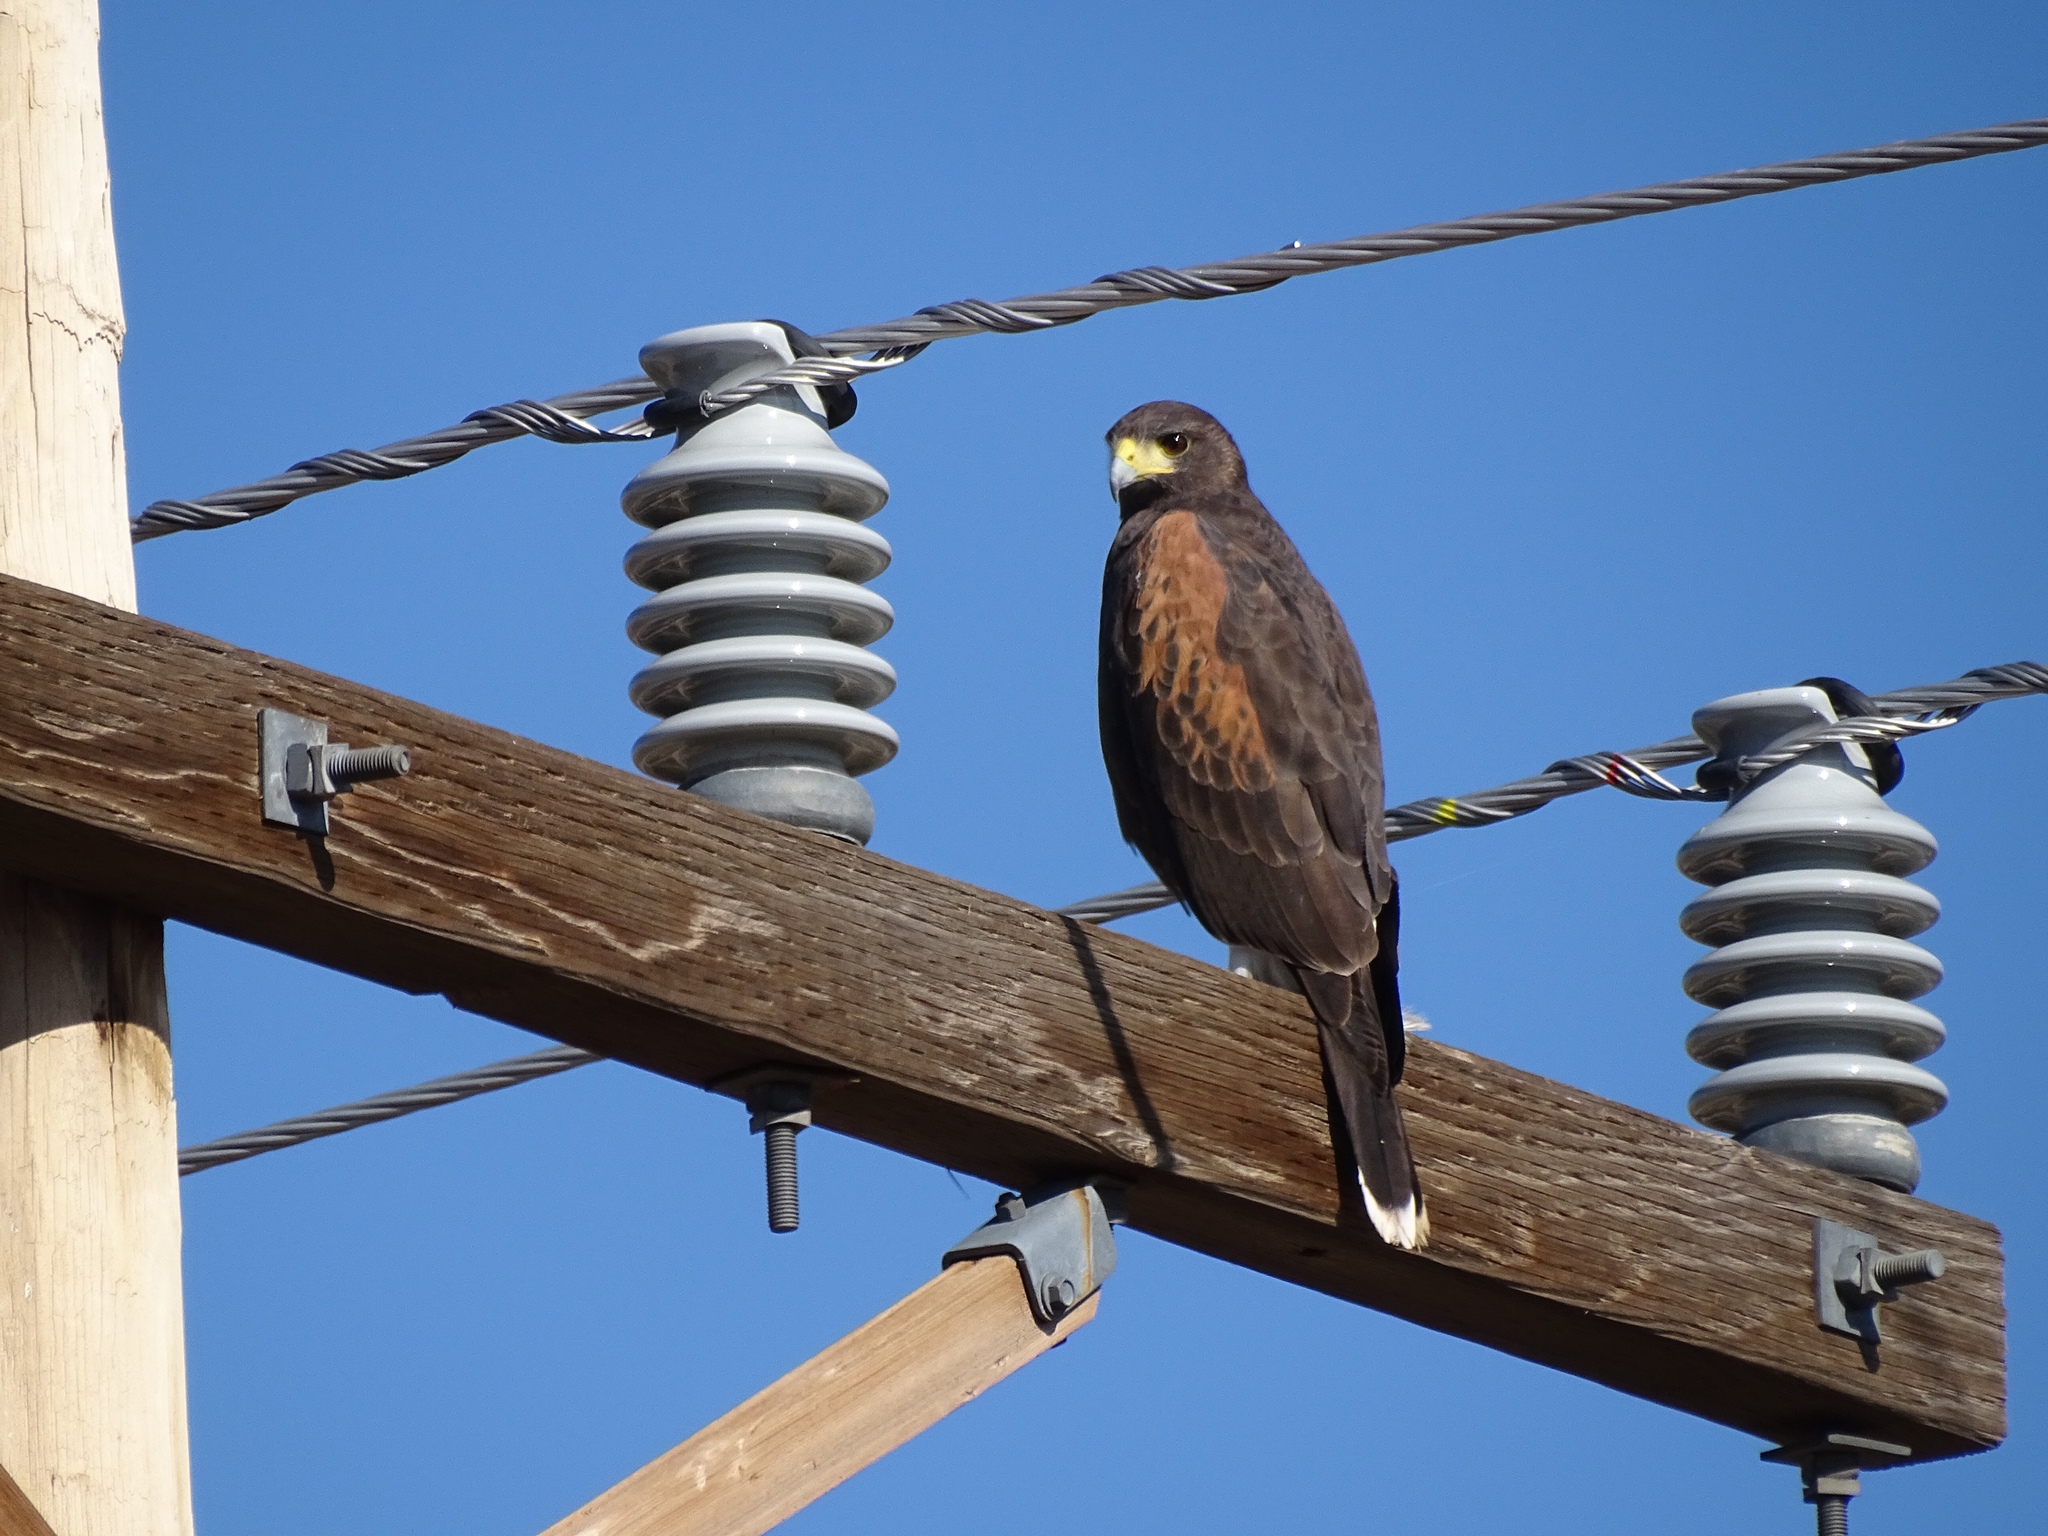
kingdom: Animalia
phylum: Chordata
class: Aves
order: Accipitriformes
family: Accipitridae
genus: Parabuteo
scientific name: Parabuteo unicinctus
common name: Harris's hawk
